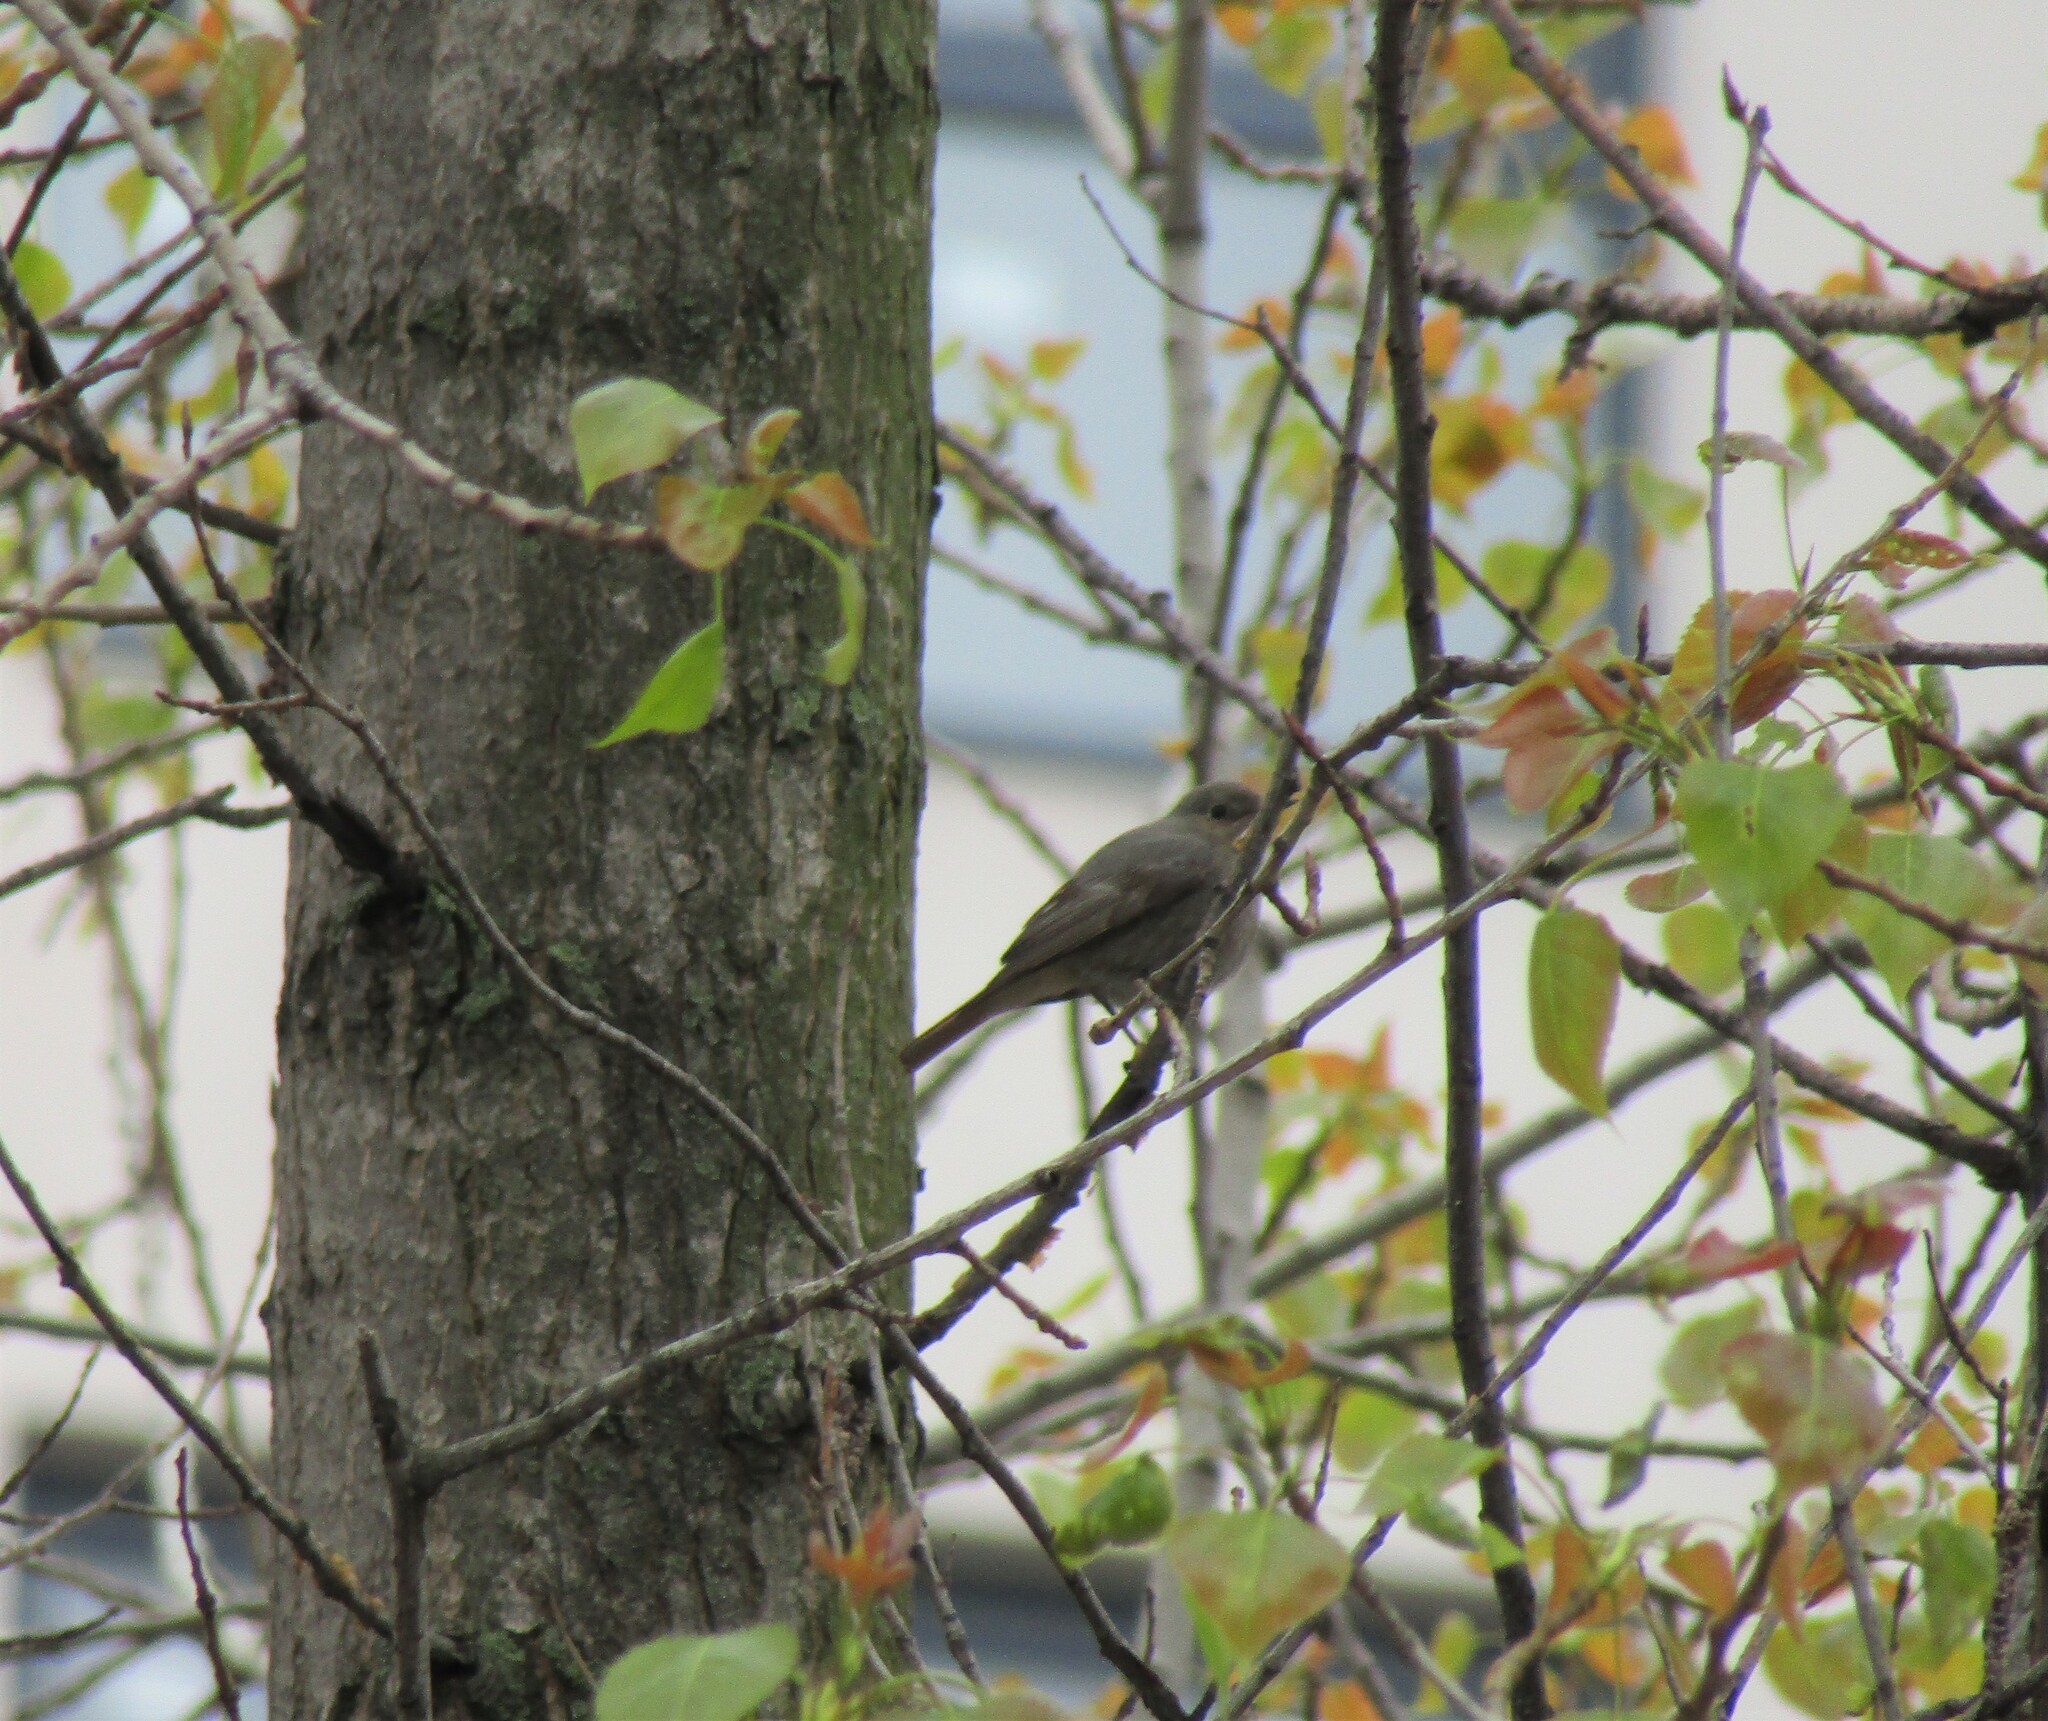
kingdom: Animalia
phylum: Chordata
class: Aves
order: Passeriformes
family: Muscicapidae
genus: Phoenicurus
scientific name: Phoenicurus ochruros
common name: Black redstart
